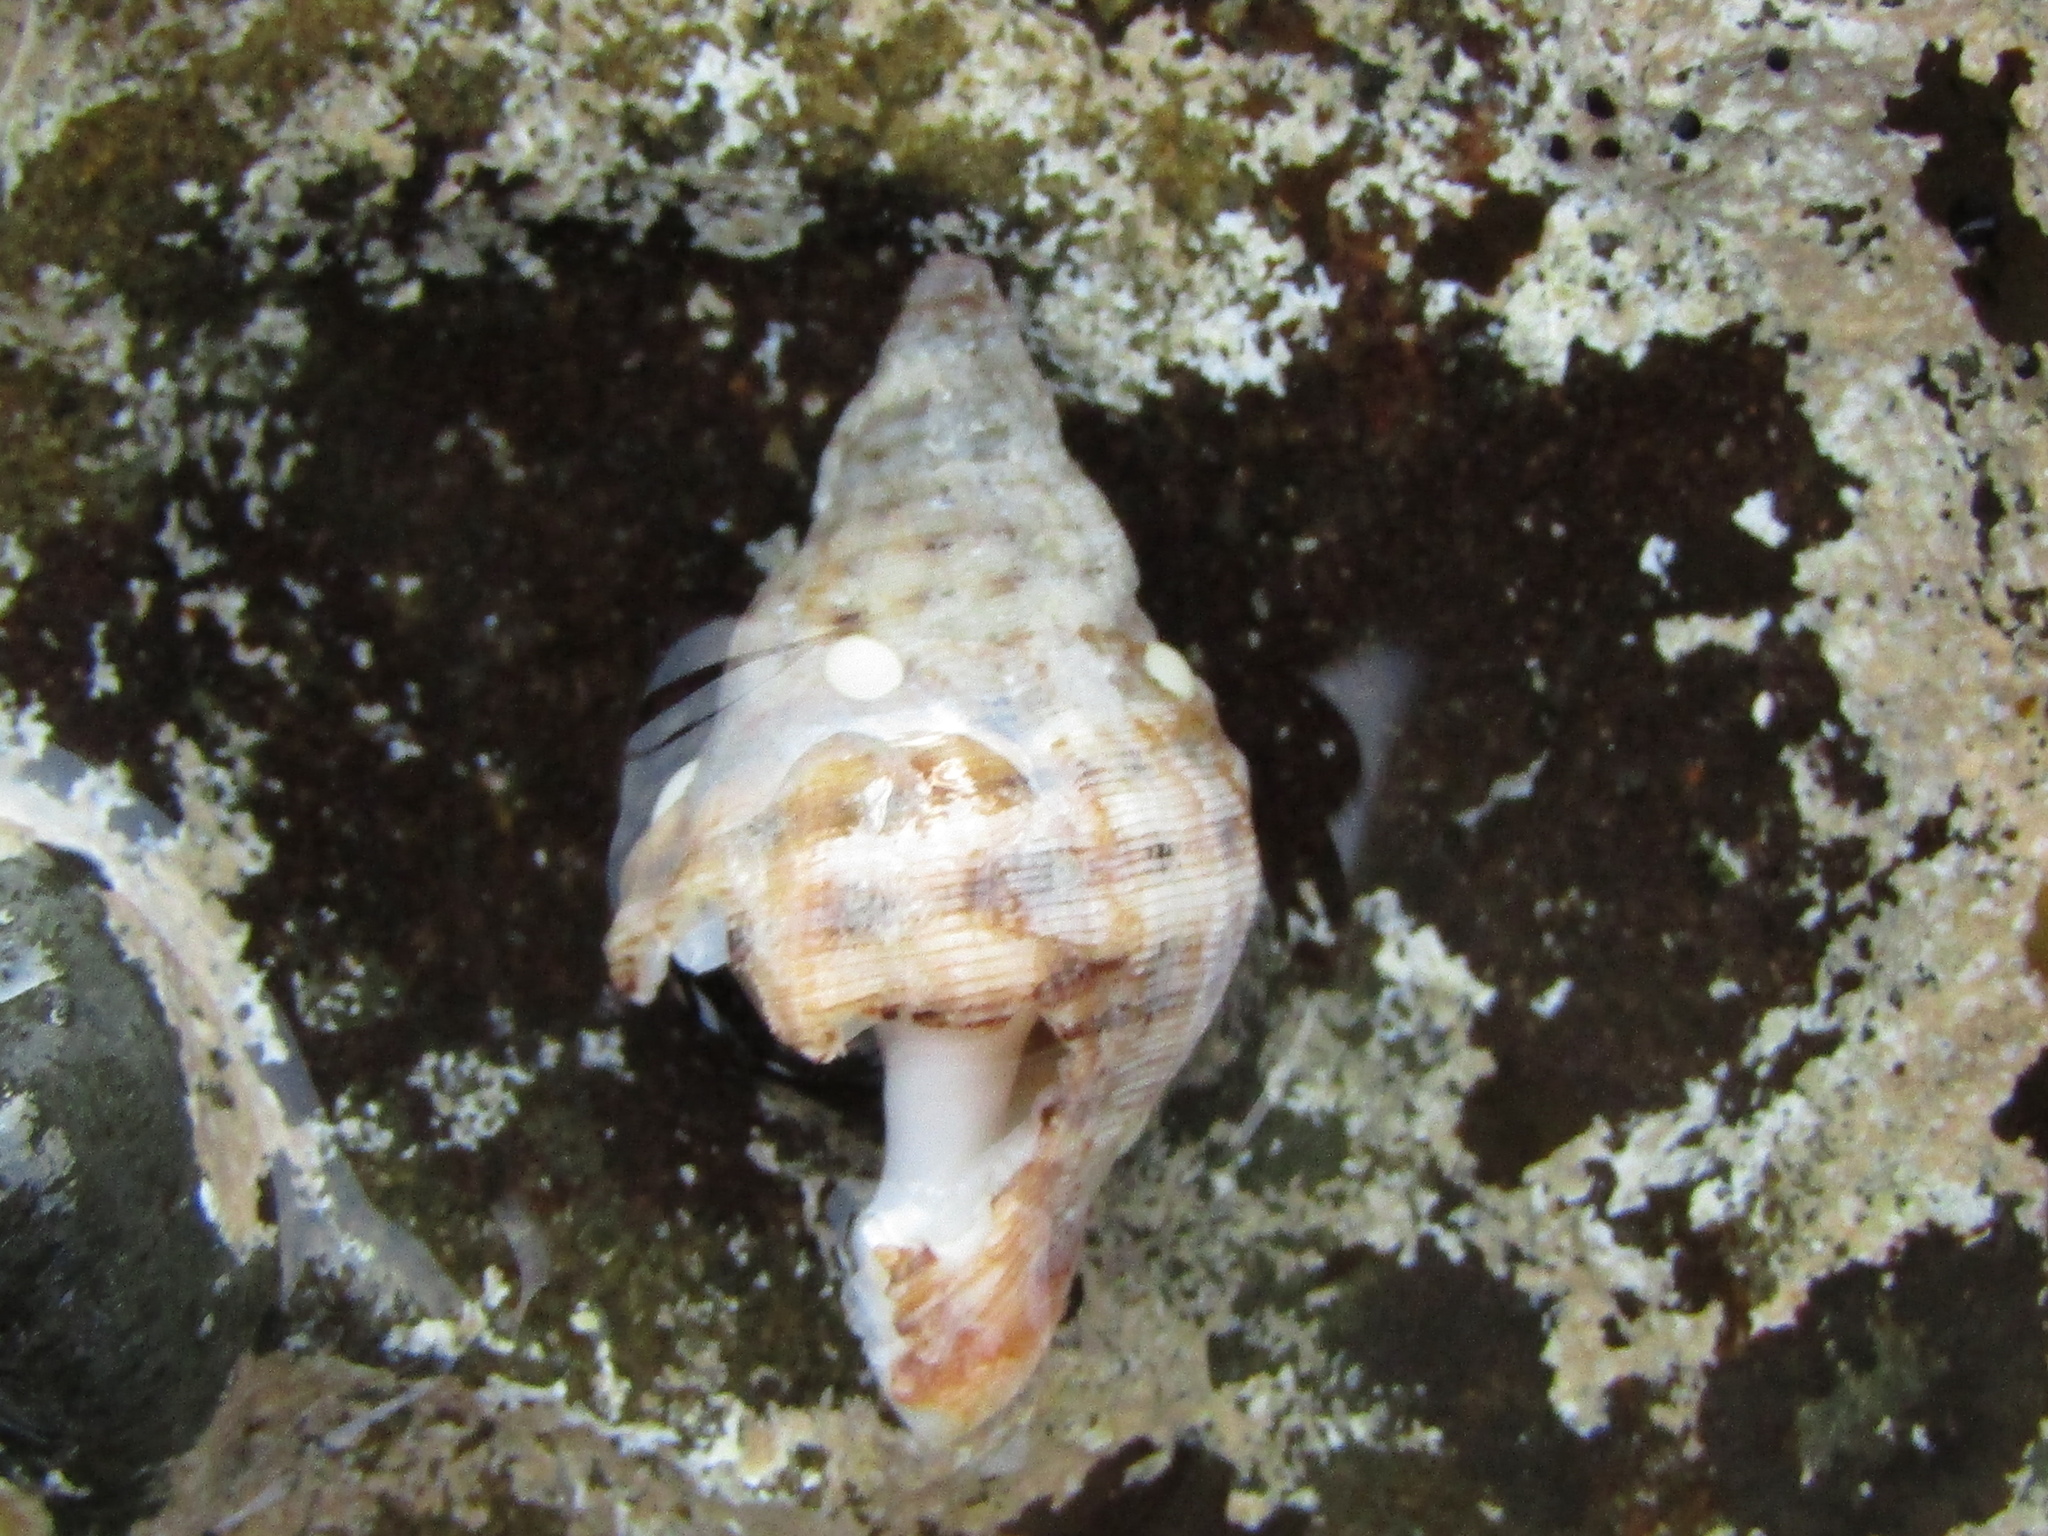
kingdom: Animalia
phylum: Mollusca
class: Gastropoda
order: Neogastropoda
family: Muricidae
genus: Agnewia
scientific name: Agnewia tritoniformis
